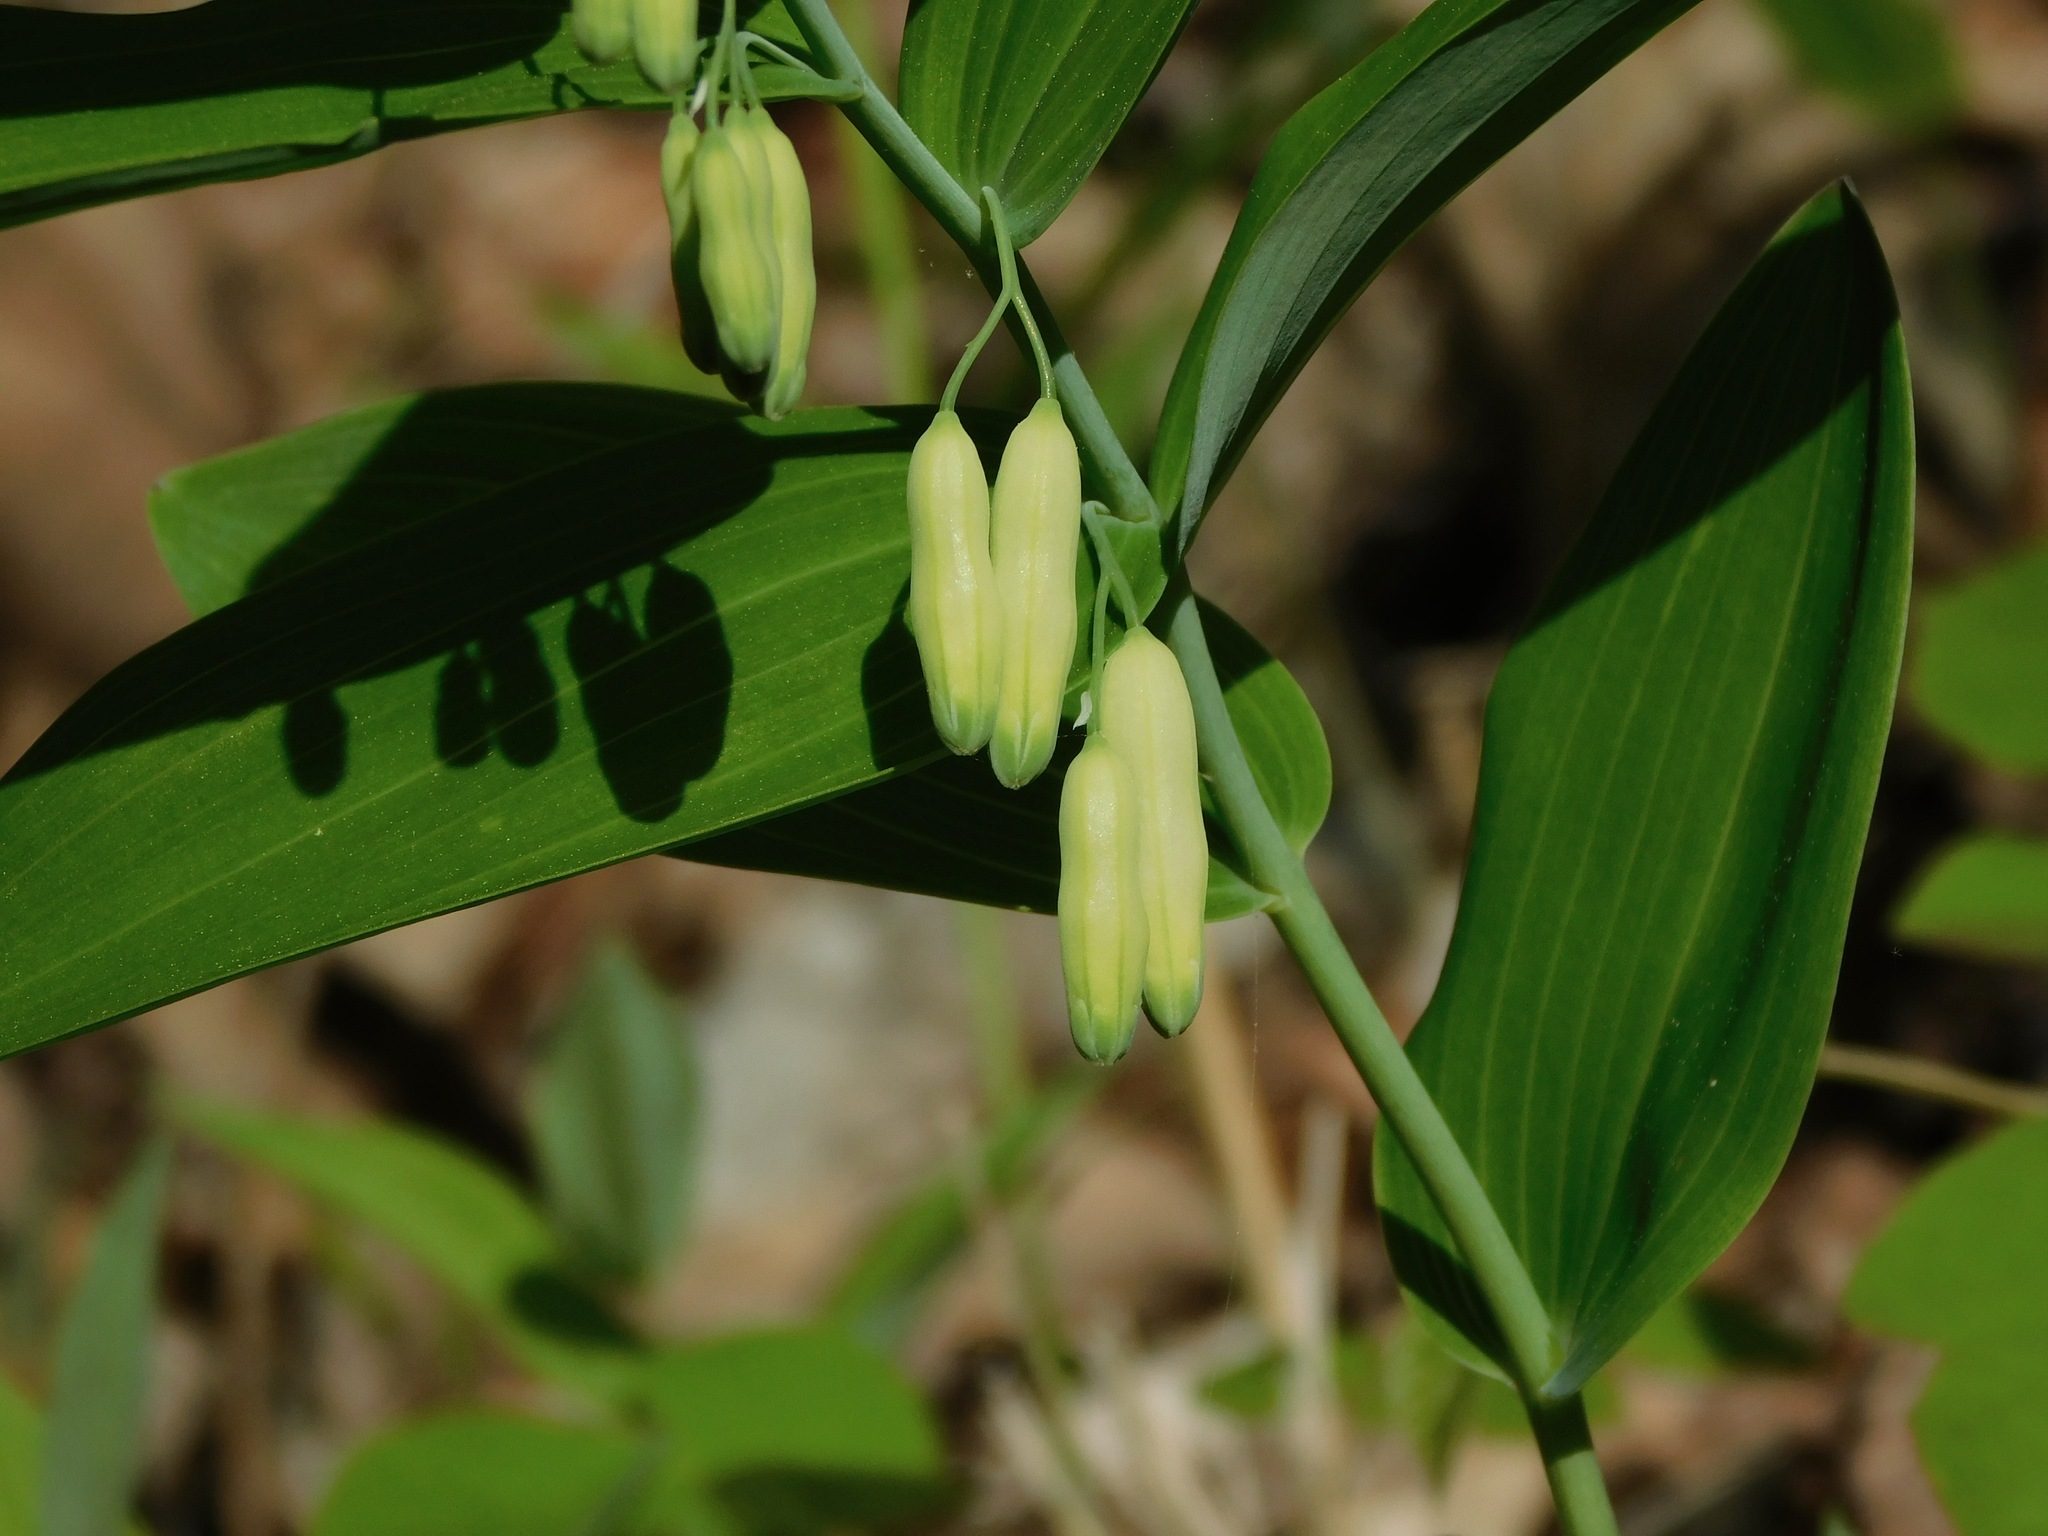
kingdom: Plantae
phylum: Tracheophyta
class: Liliopsida
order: Asparagales
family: Asparagaceae
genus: Polygonatum
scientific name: Polygonatum biflorum
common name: American solomon's-seal
